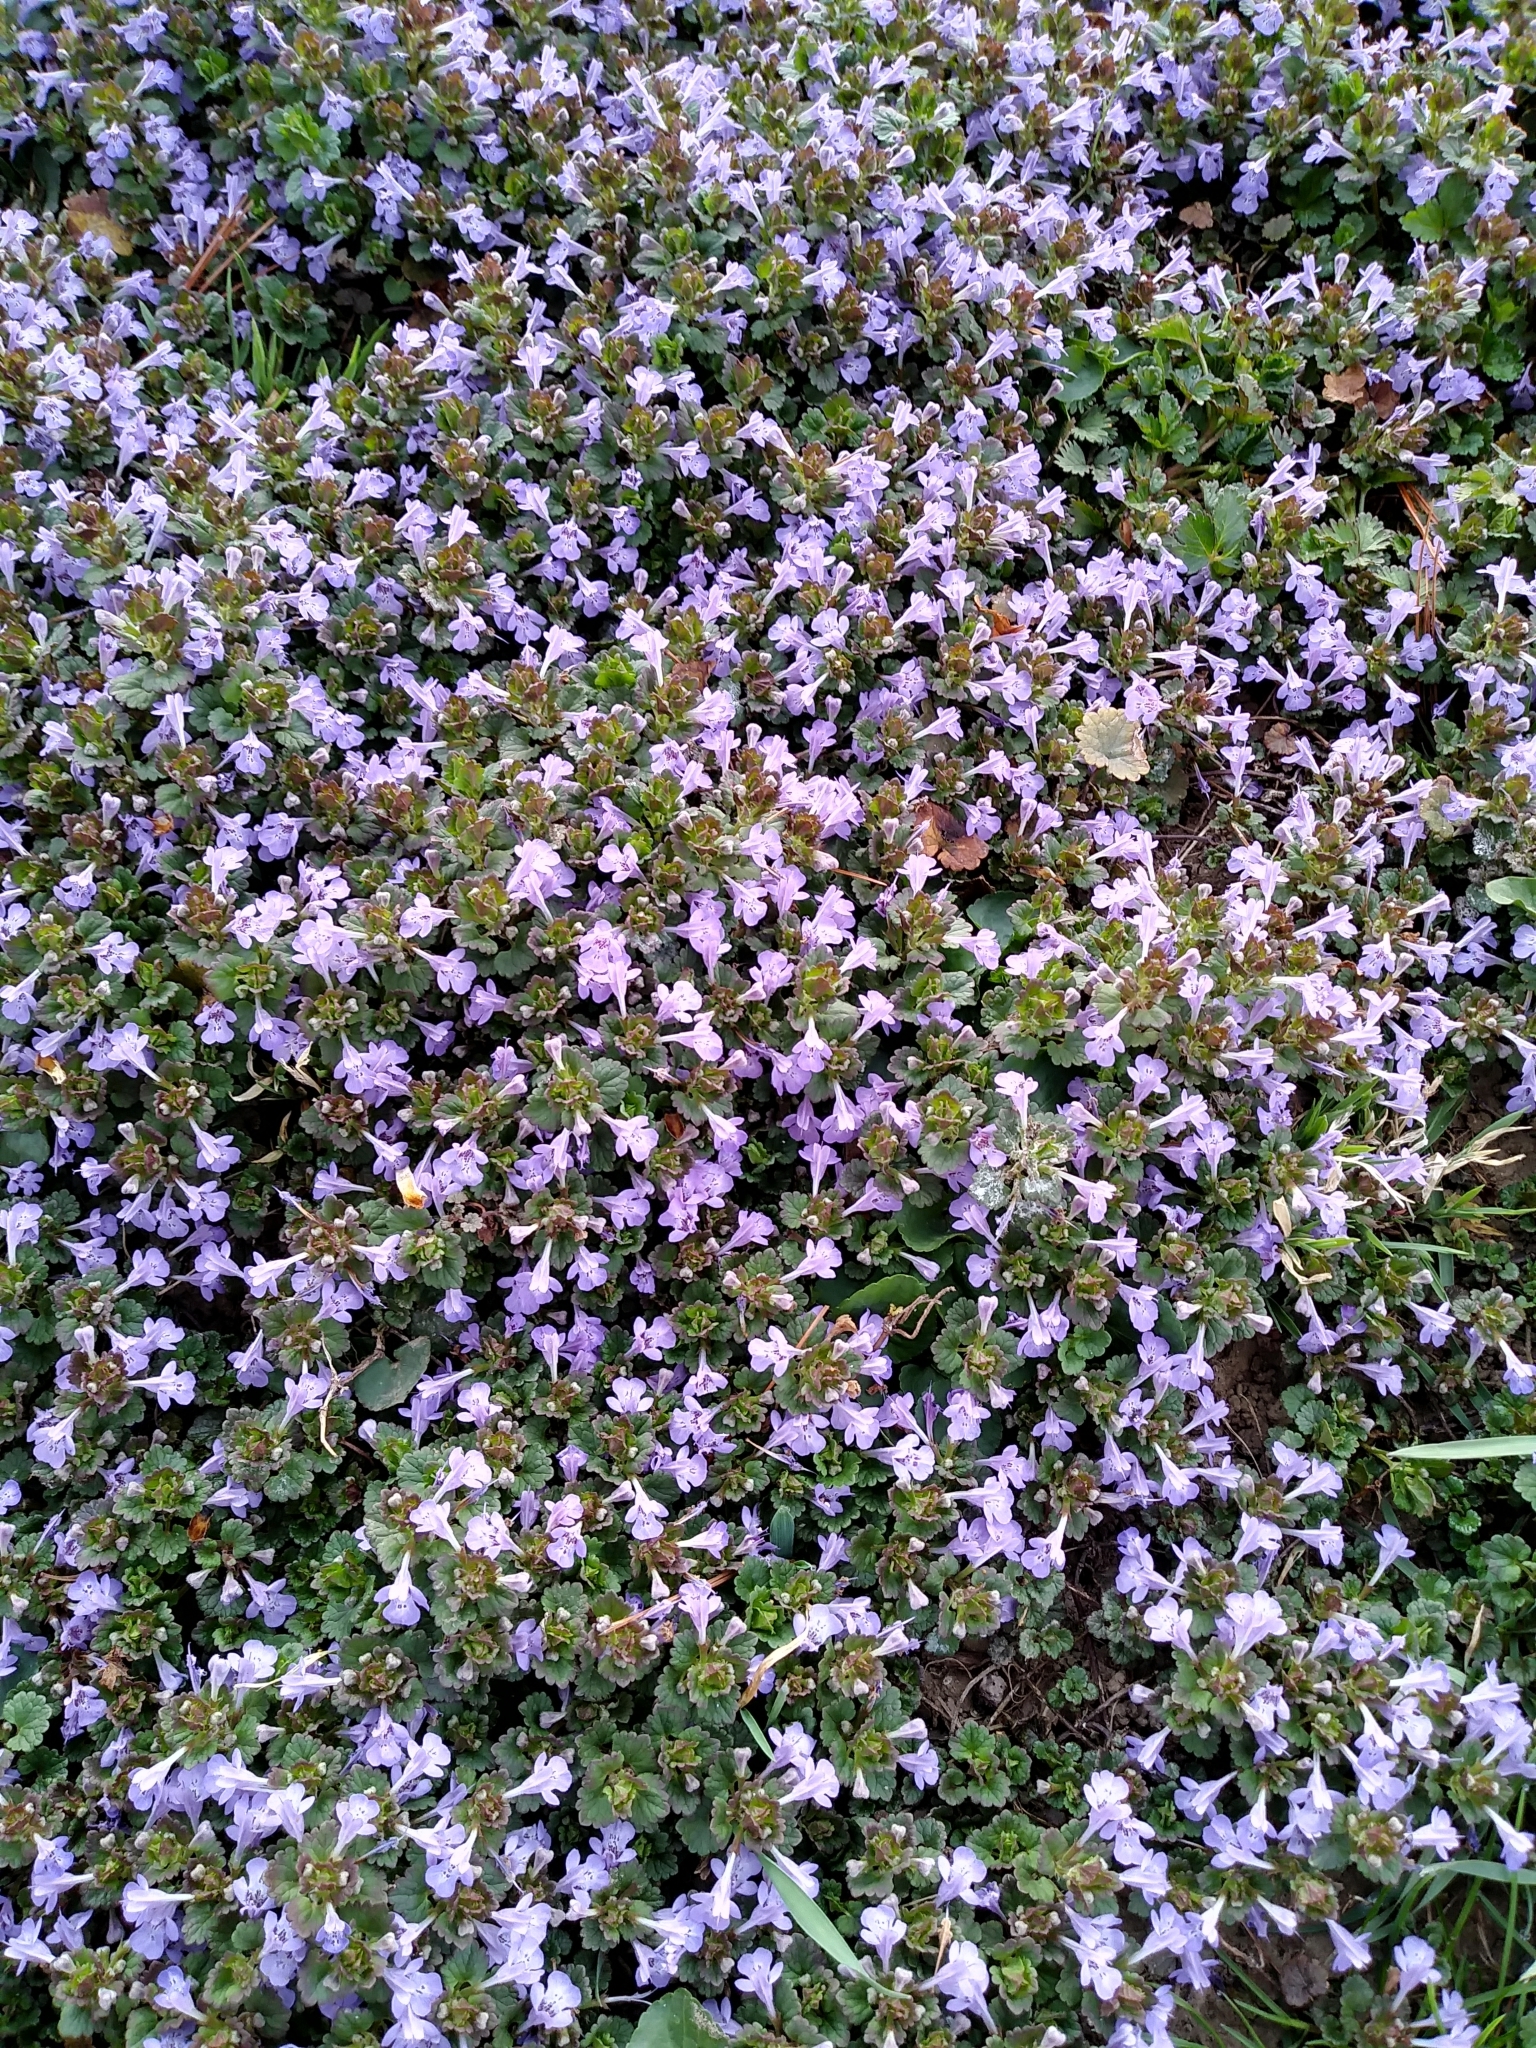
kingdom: Plantae
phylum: Tracheophyta
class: Magnoliopsida
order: Lamiales
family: Lamiaceae
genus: Glechoma
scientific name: Glechoma hederacea
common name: Ground ivy
